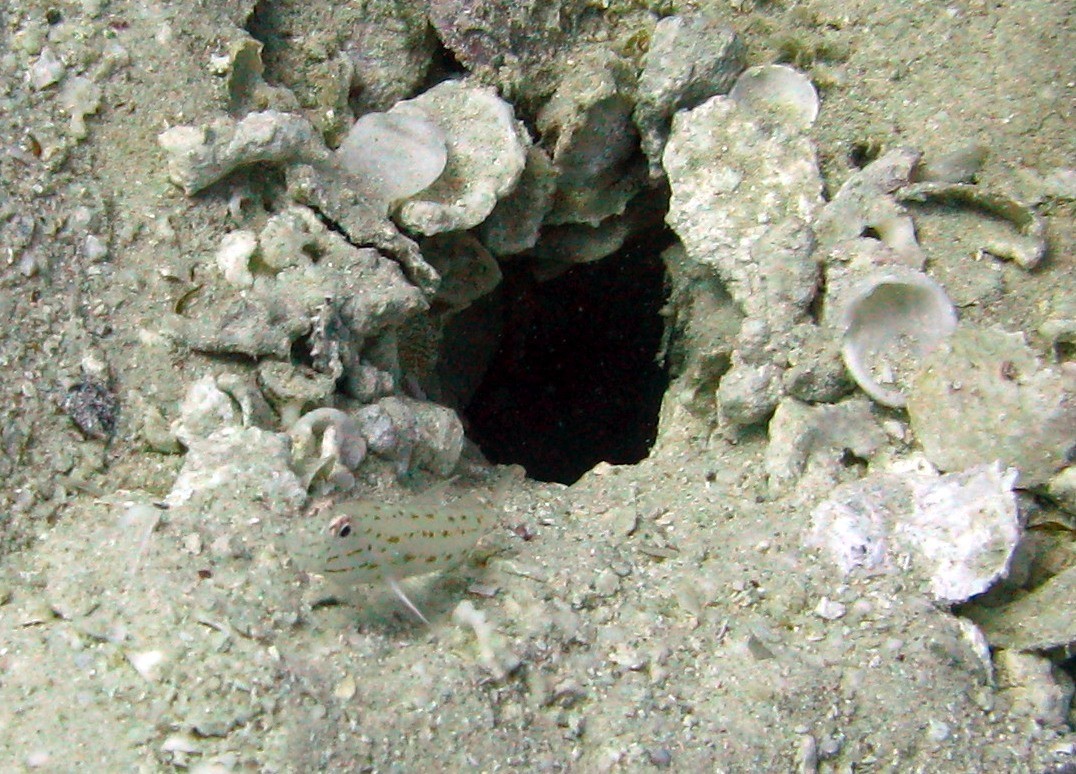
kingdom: Animalia
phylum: Chordata
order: Perciformes
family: Gobiidae
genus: Ctenogobiops
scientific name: Ctenogobiops crocineus
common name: Silverspot shrimpgoby
